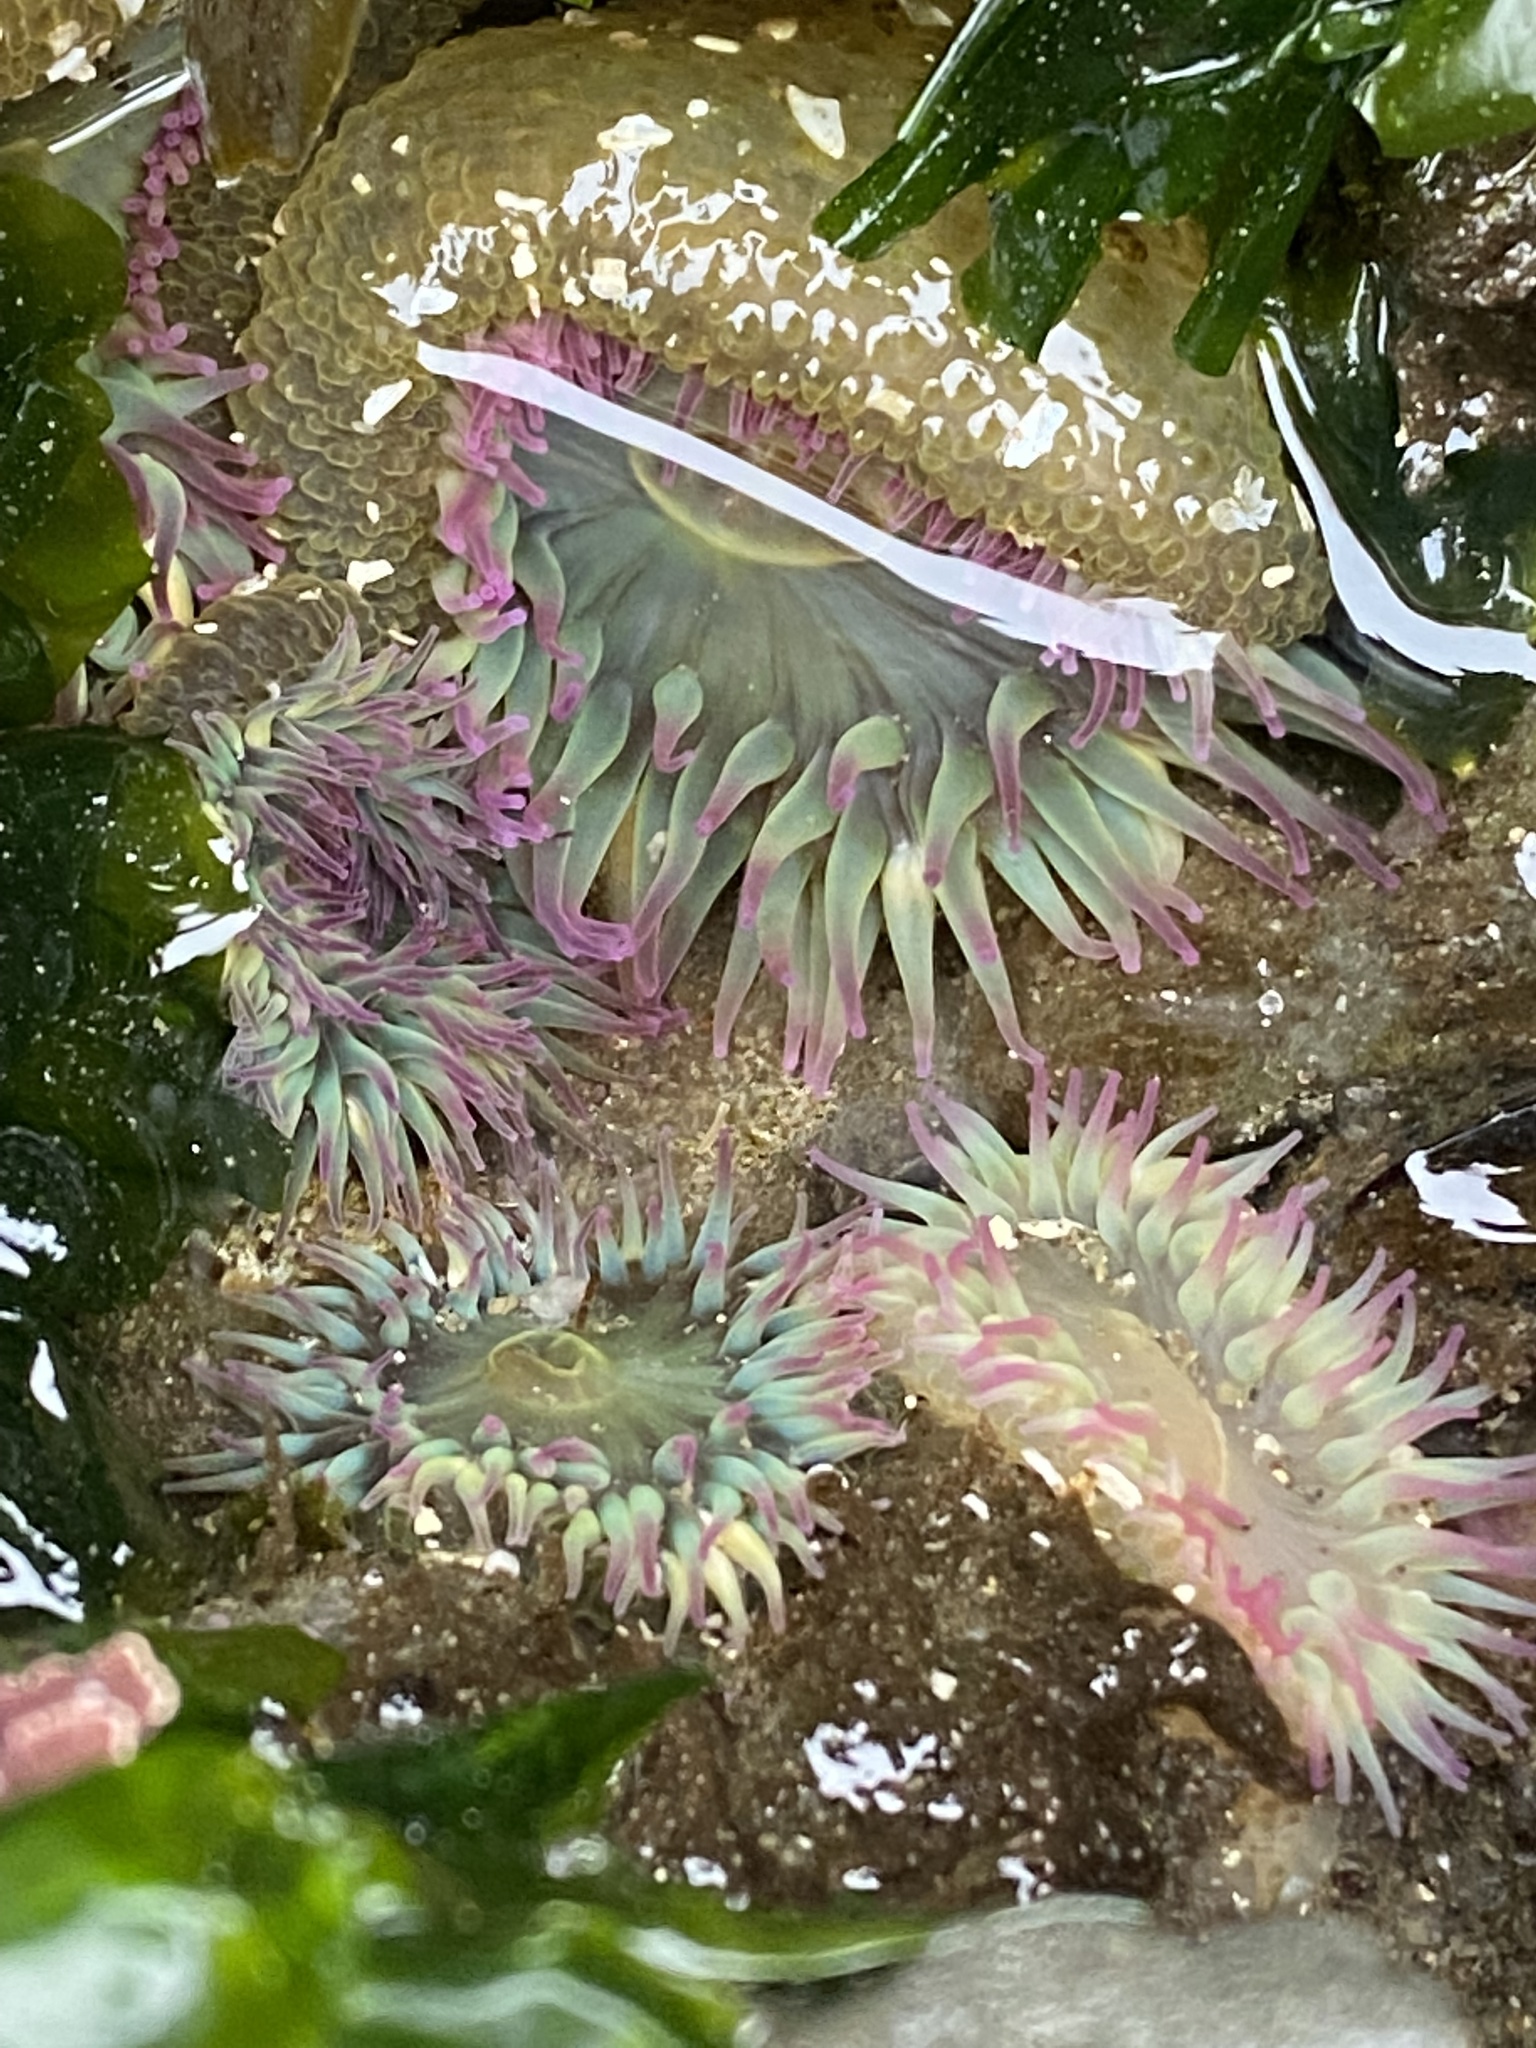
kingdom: Animalia
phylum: Cnidaria
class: Anthozoa
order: Actiniaria
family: Actiniidae
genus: Anthopleura
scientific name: Anthopleura elegantissima
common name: Clonal anemone
